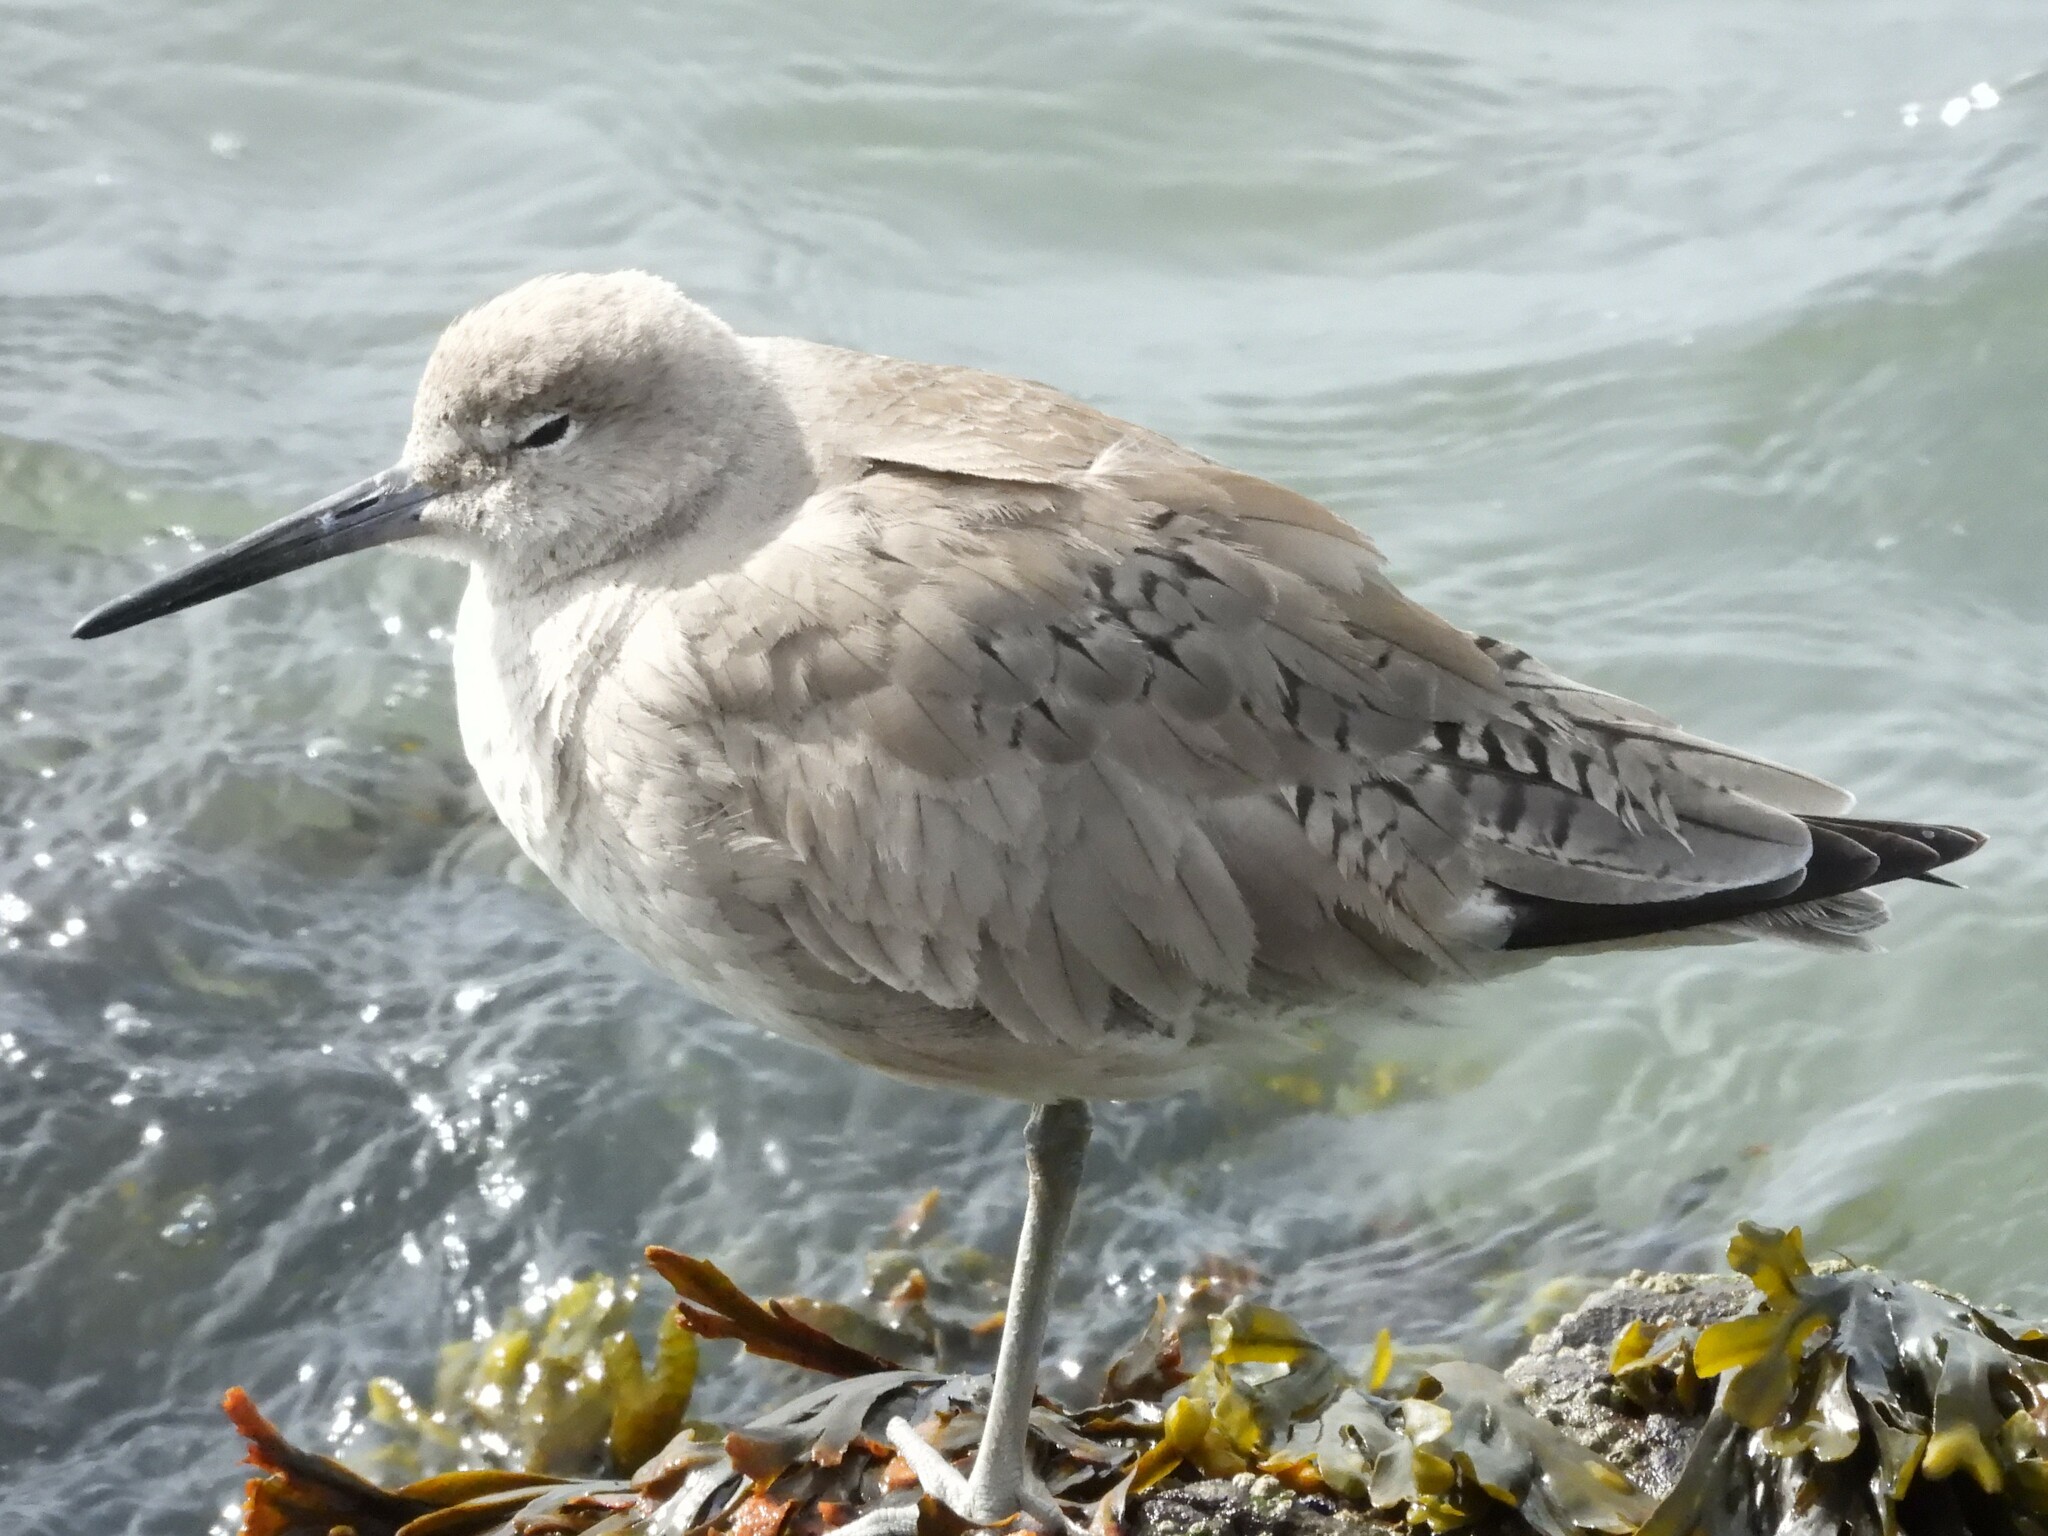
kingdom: Animalia
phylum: Chordata
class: Aves
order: Charadriiformes
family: Scolopacidae
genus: Tringa
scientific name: Tringa semipalmata
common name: Willet
